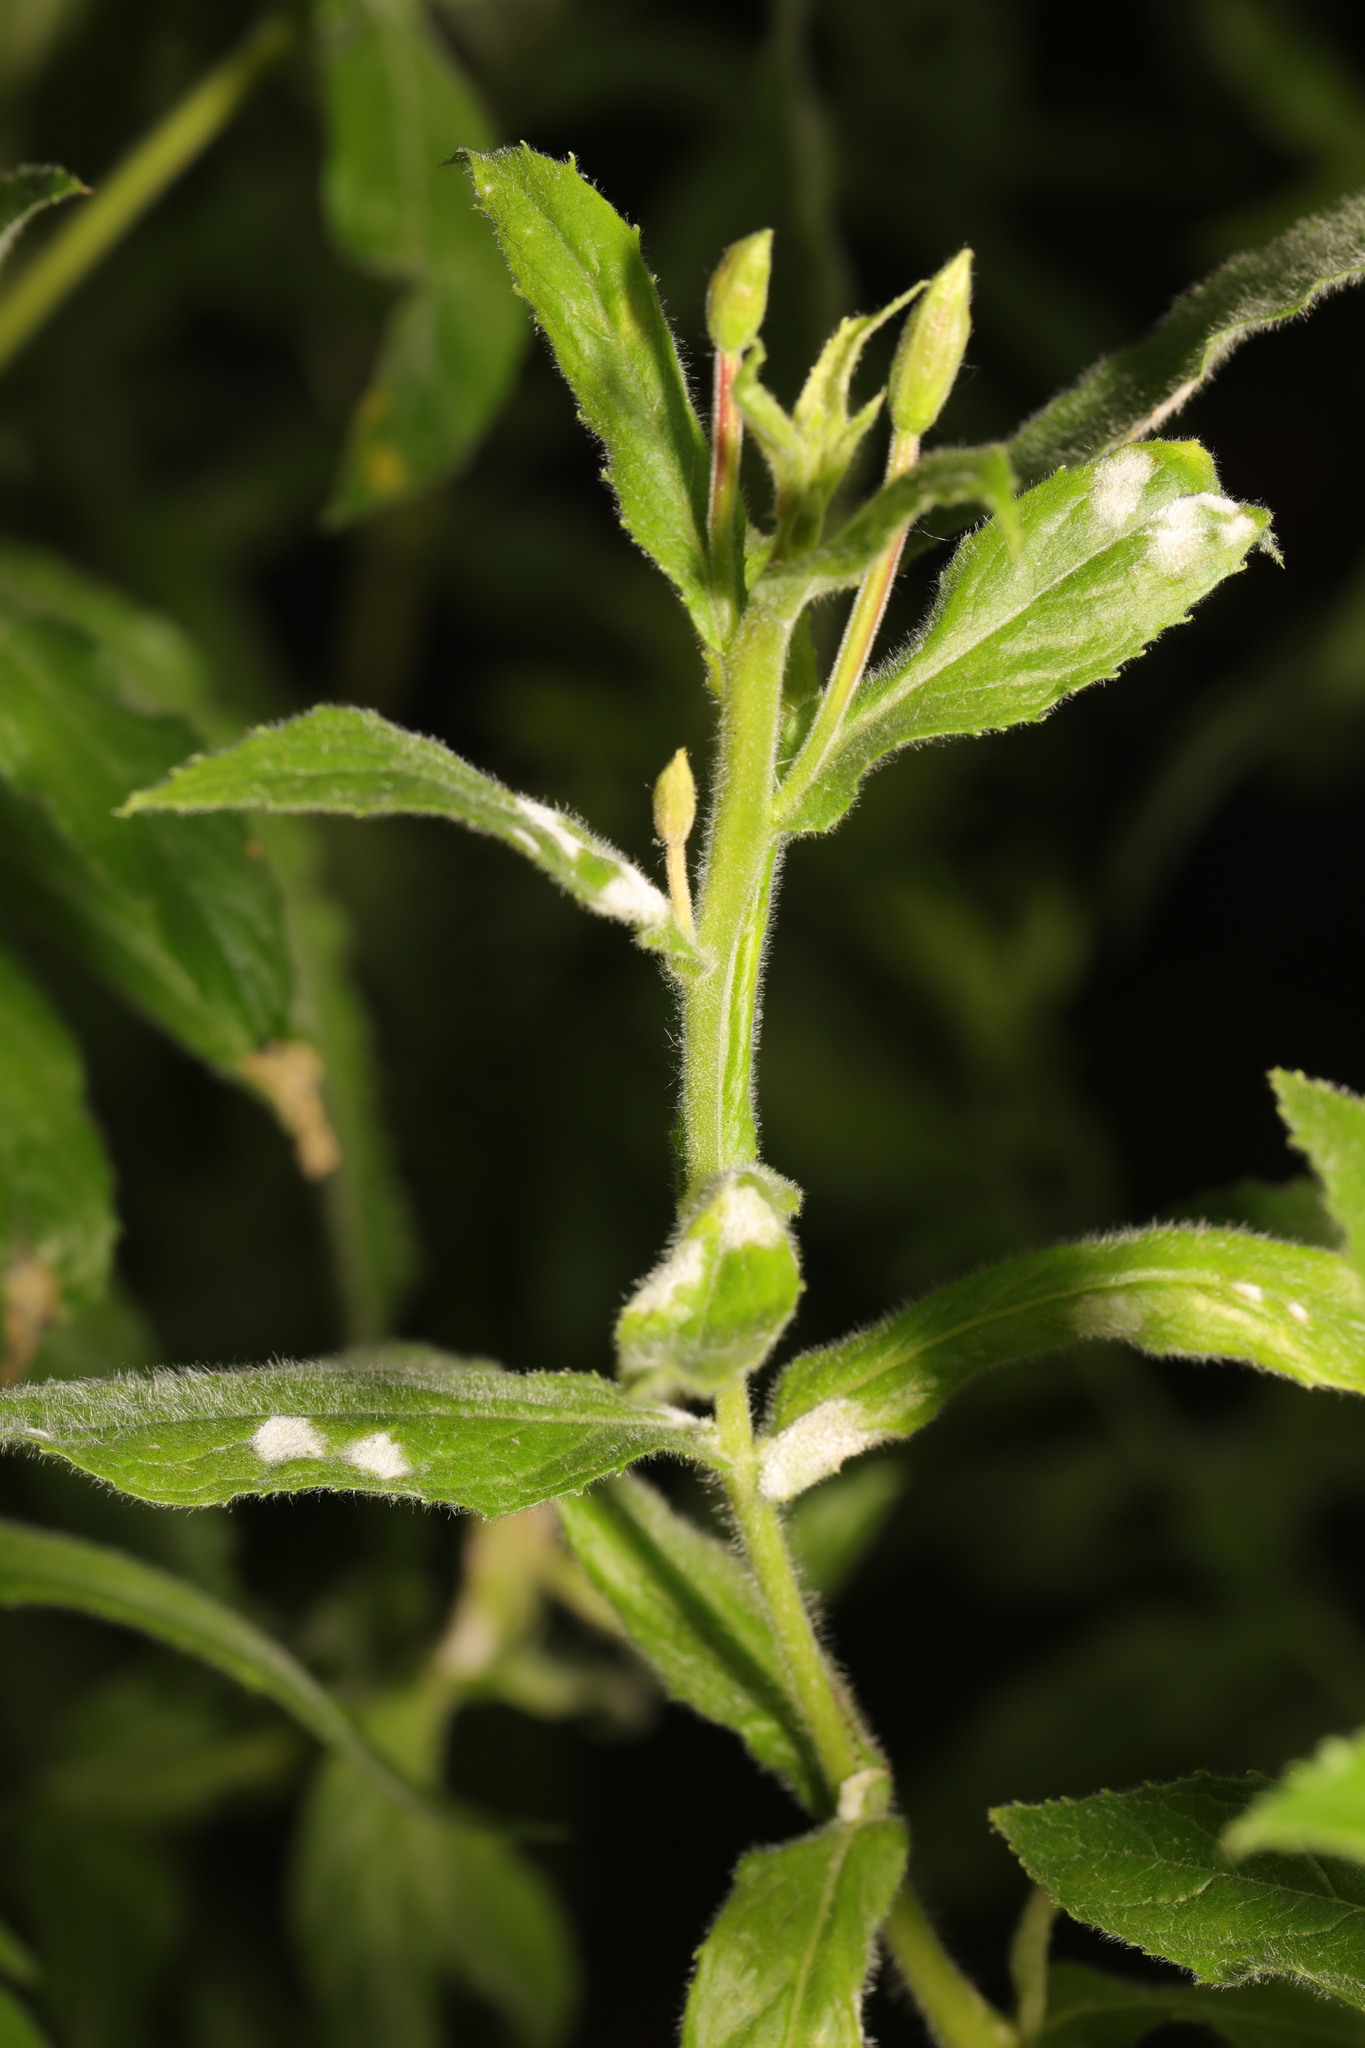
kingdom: Fungi
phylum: Ascomycota
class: Leotiomycetes
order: Helotiales
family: Erysiphaceae
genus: Podosphaera
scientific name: Podosphaera epilobii
